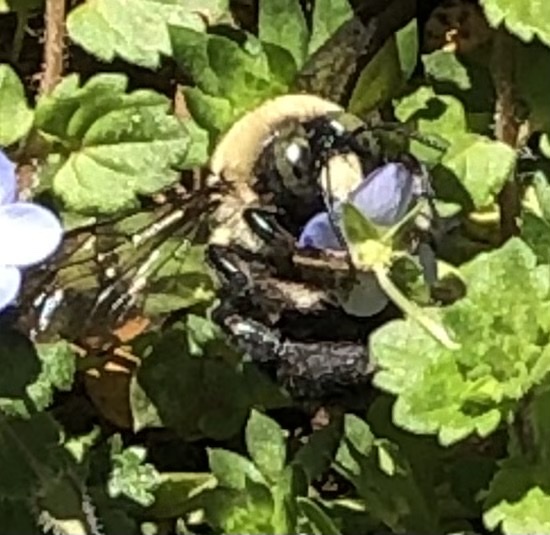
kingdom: Animalia
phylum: Arthropoda
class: Insecta
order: Hymenoptera
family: Apidae
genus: Xylocopa
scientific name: Xylocopa virginica
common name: Carpenter bee
